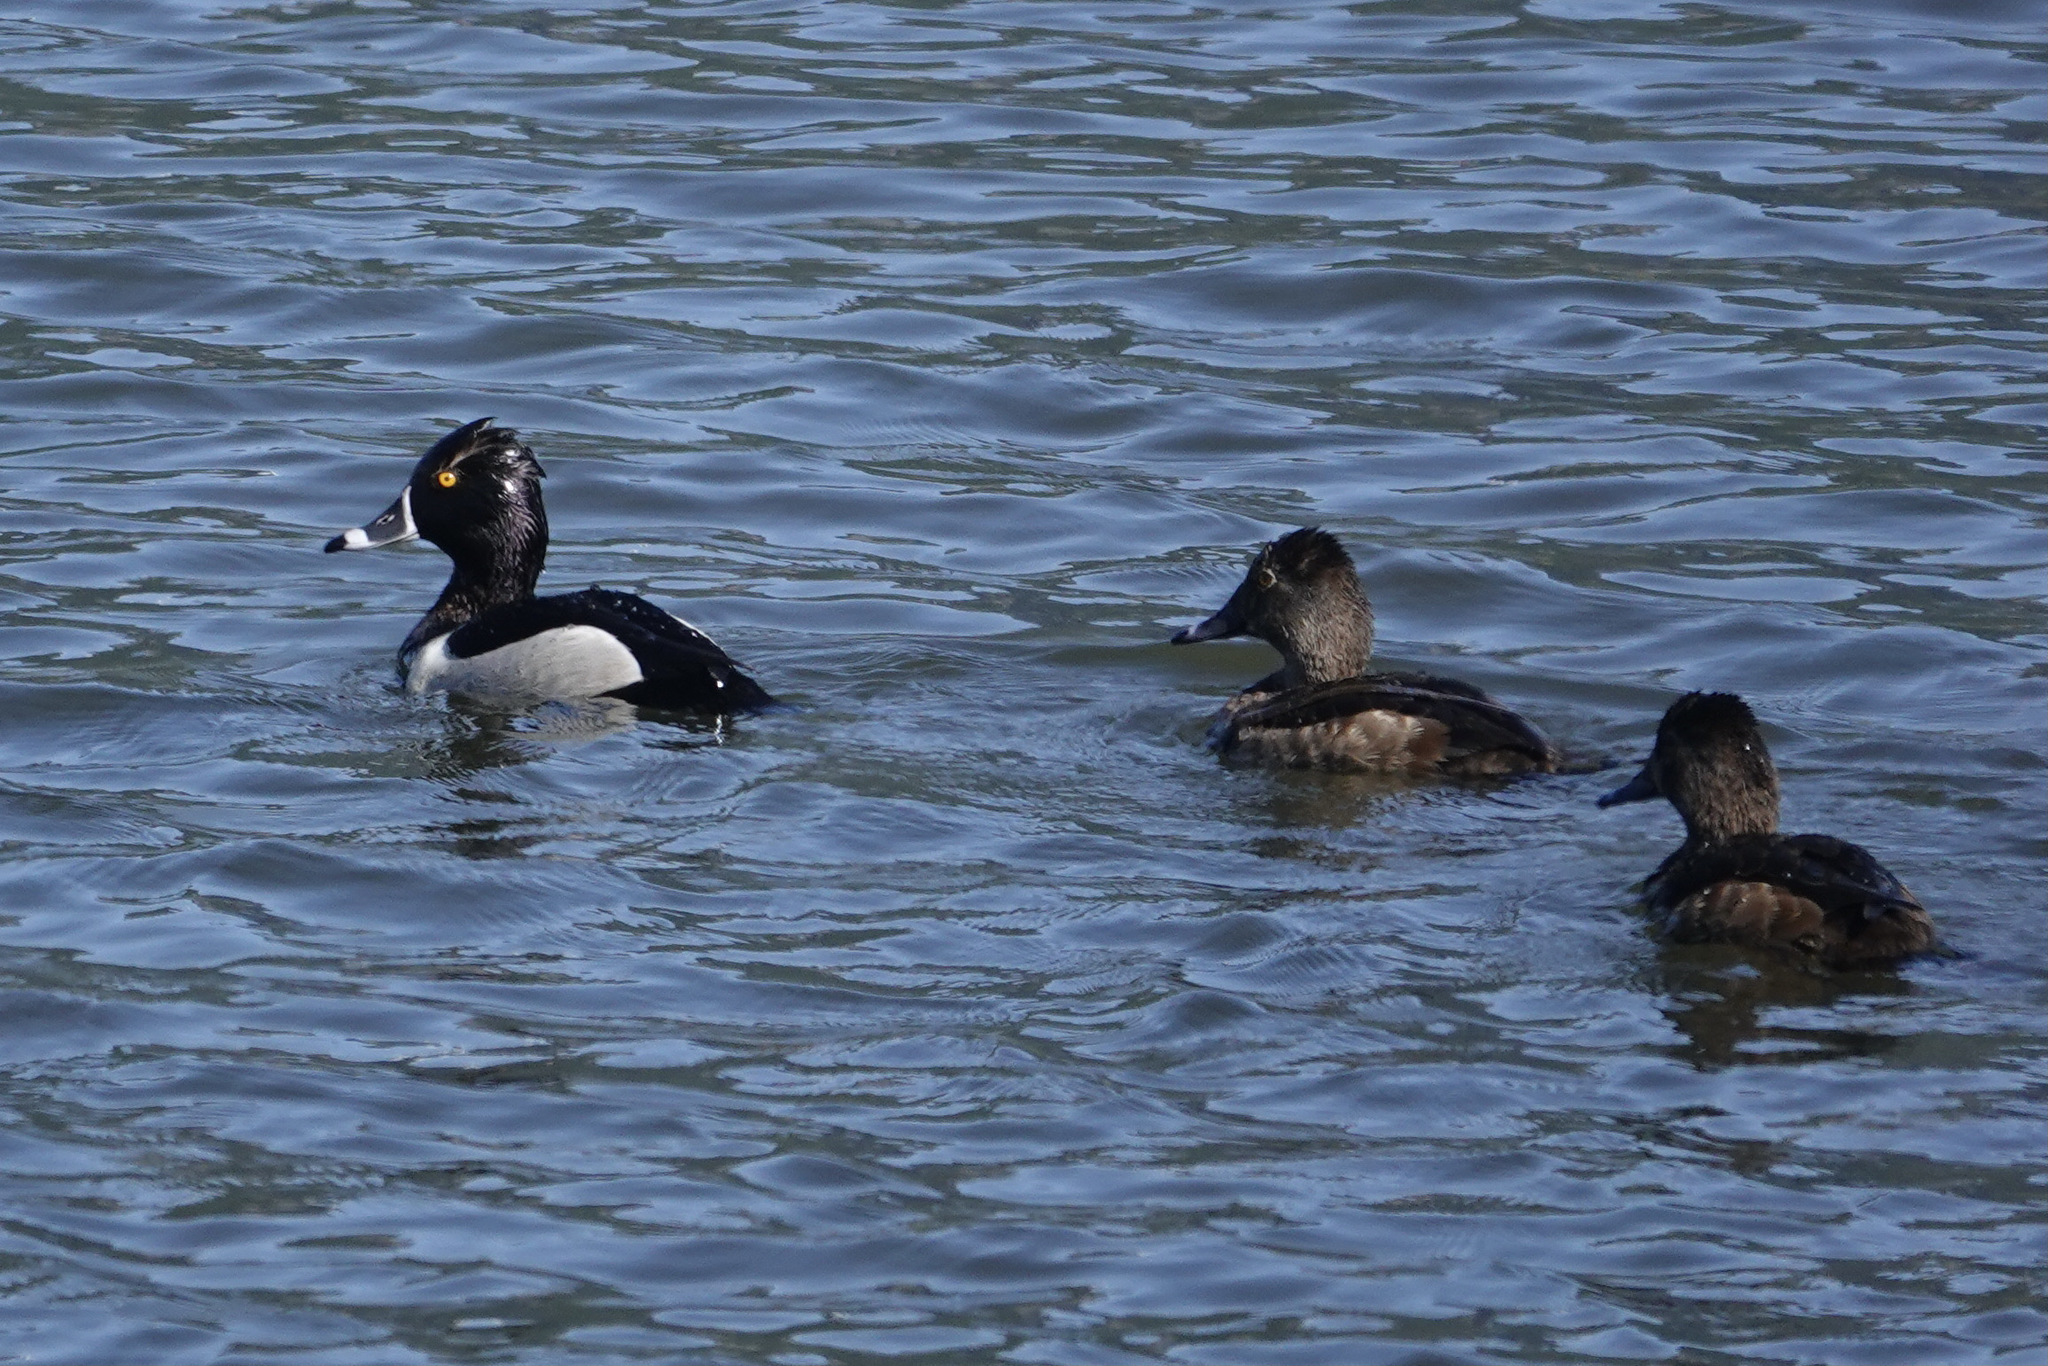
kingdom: Animalia
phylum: Chordata
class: Aves
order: Anseriformes
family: Anatidae
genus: Aythya
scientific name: Aythya collaris
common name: Ring-necked duck
